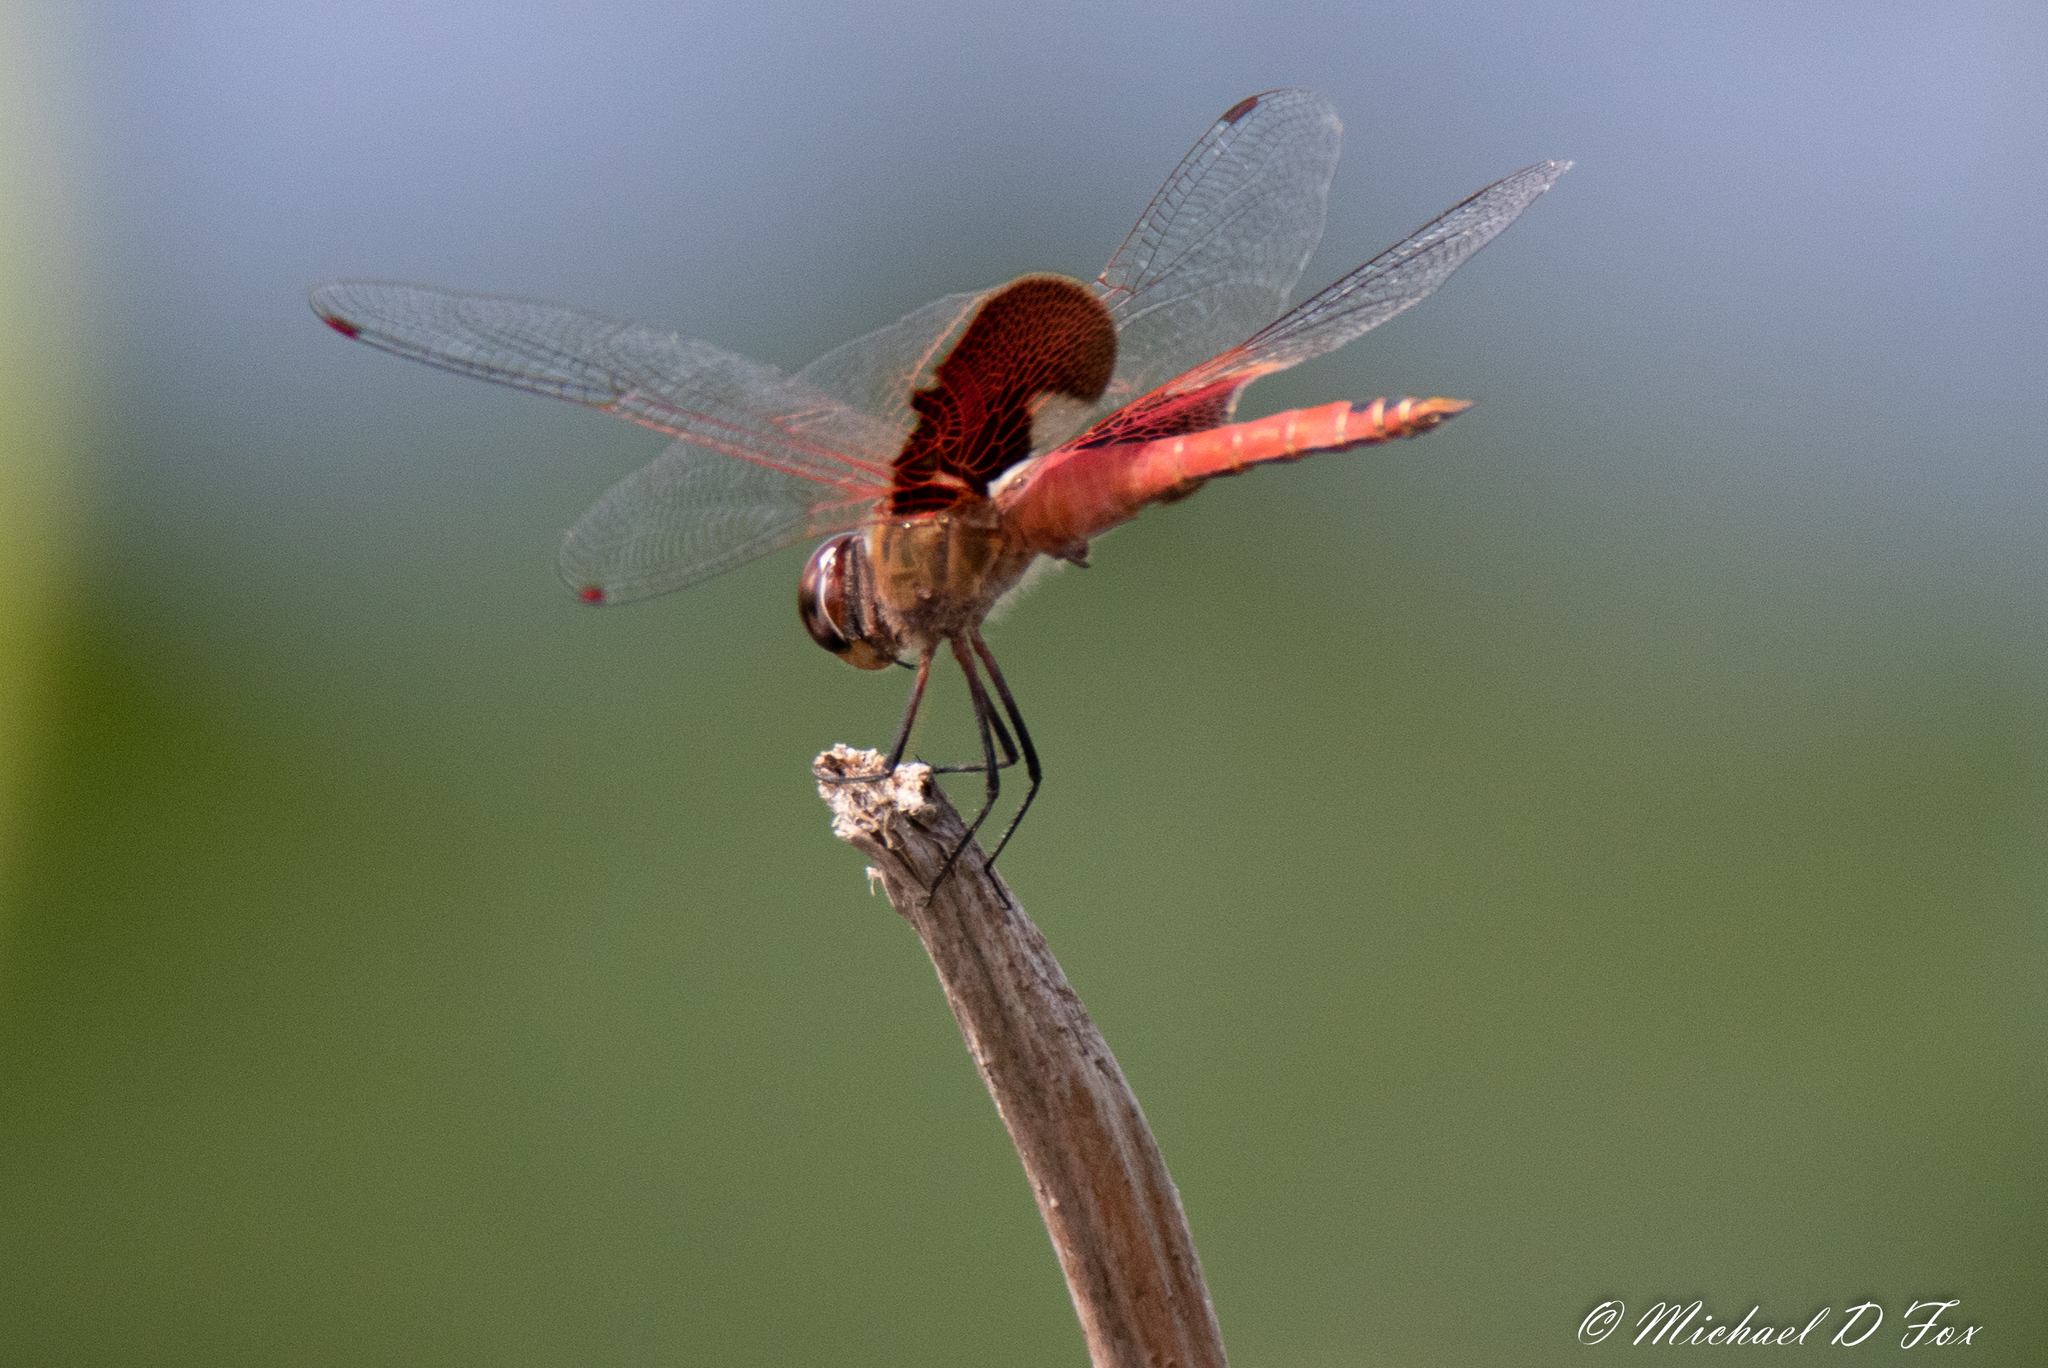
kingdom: Animalia
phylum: Arthropoda
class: Insecta
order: Odonata
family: Libellulidae
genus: Tramea
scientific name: Tramea onusta
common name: Red saddlebags
